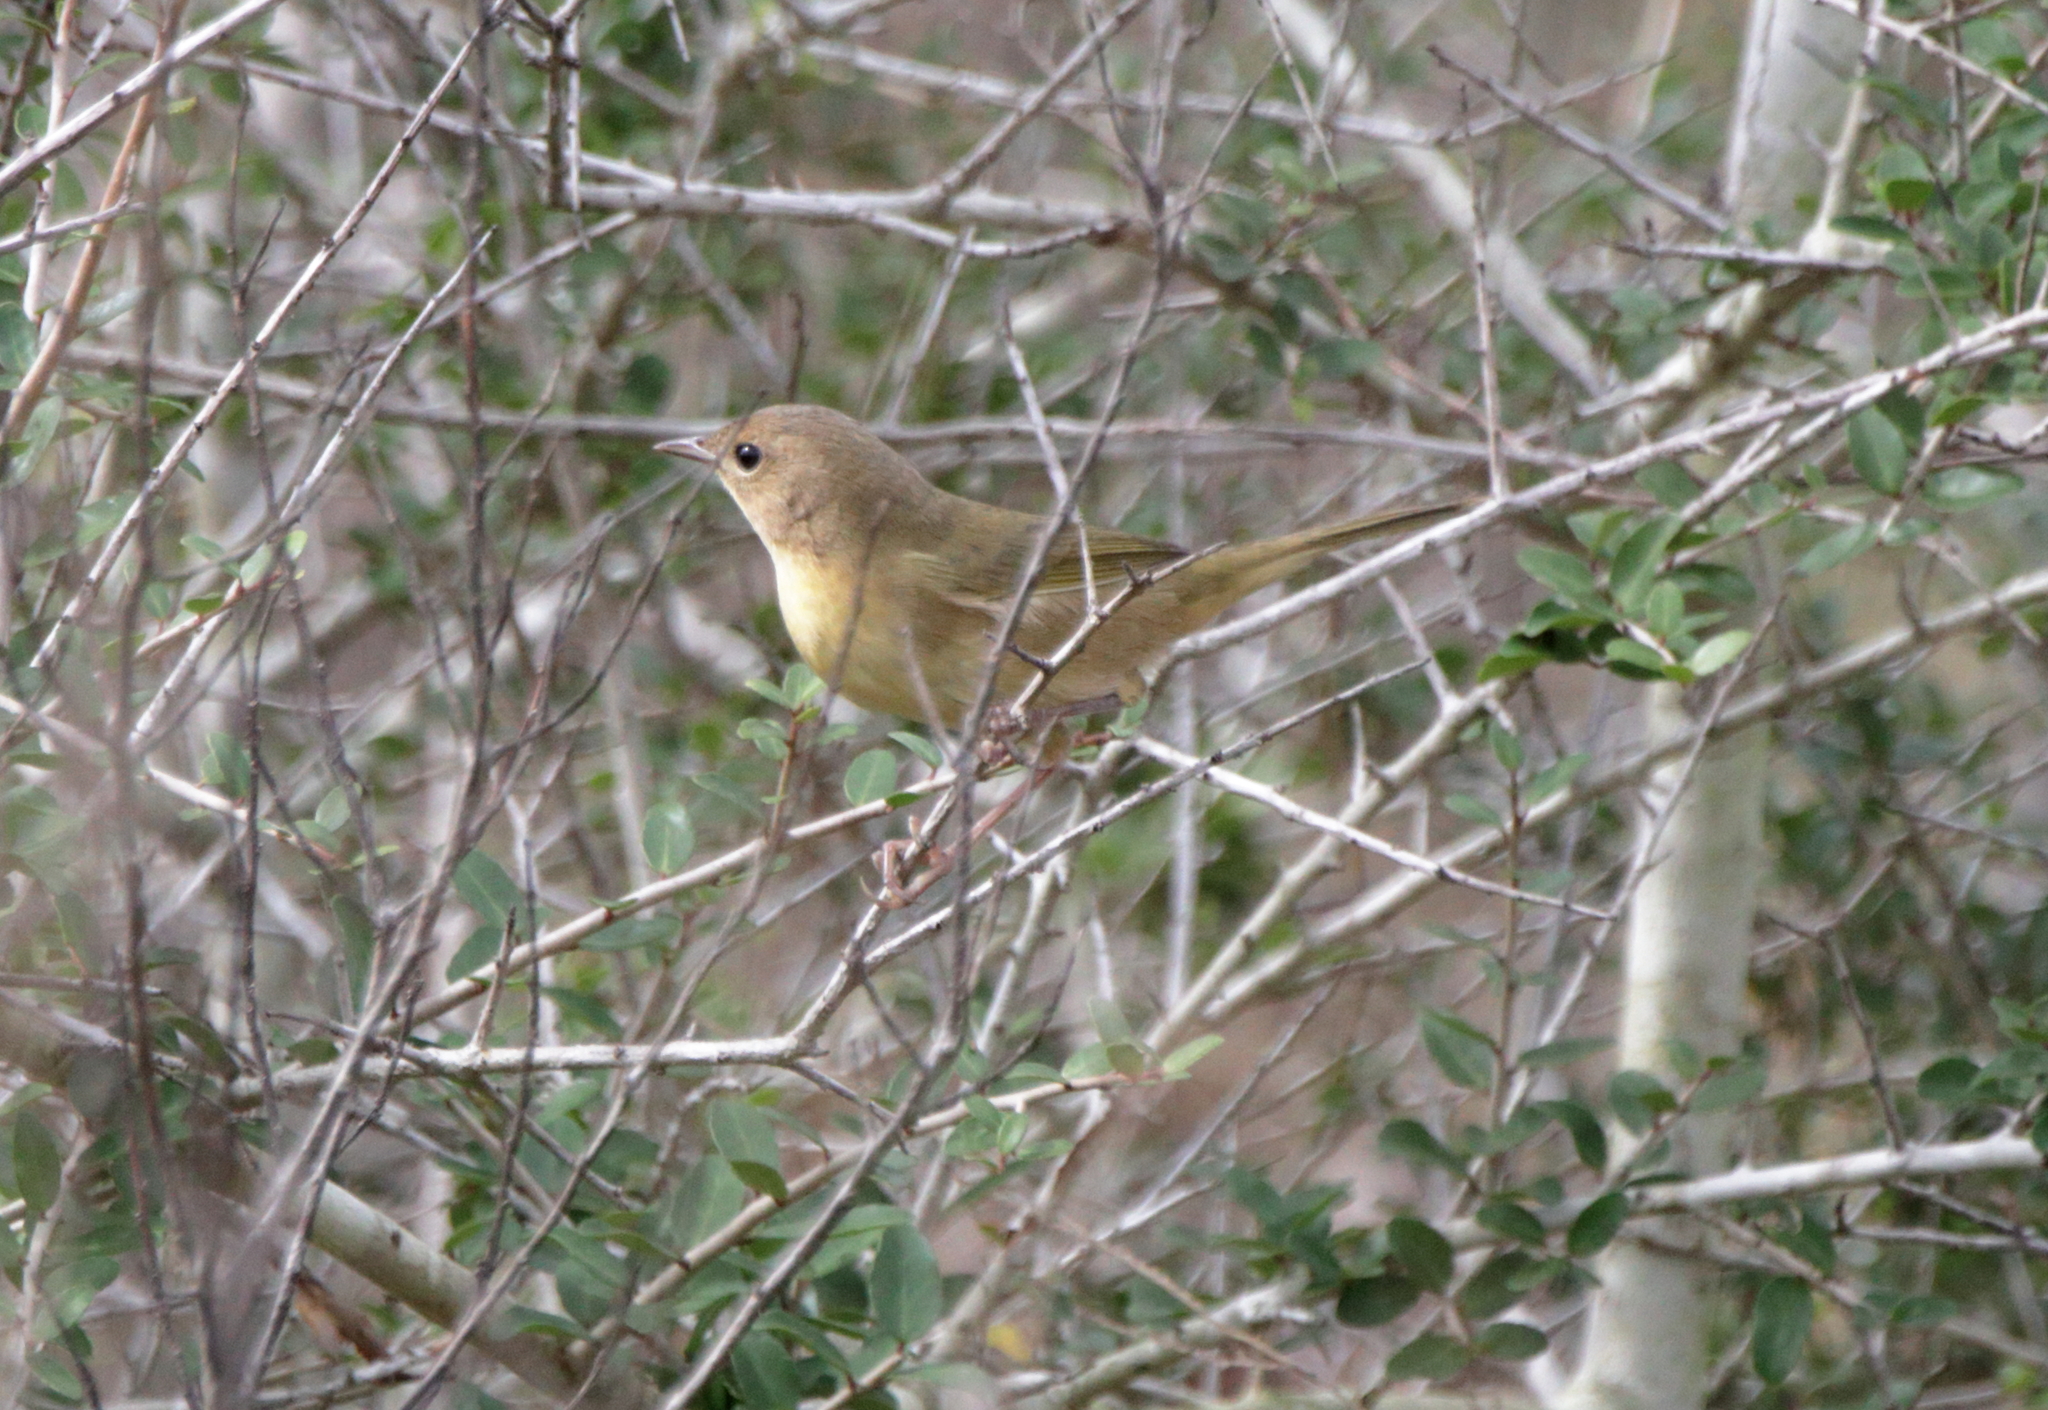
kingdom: Animalia
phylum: Chordata
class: Aves
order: Passeriformes
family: Parulidae
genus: Geothlypis
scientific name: Geothlypis trichas
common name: Common yellowthroat
